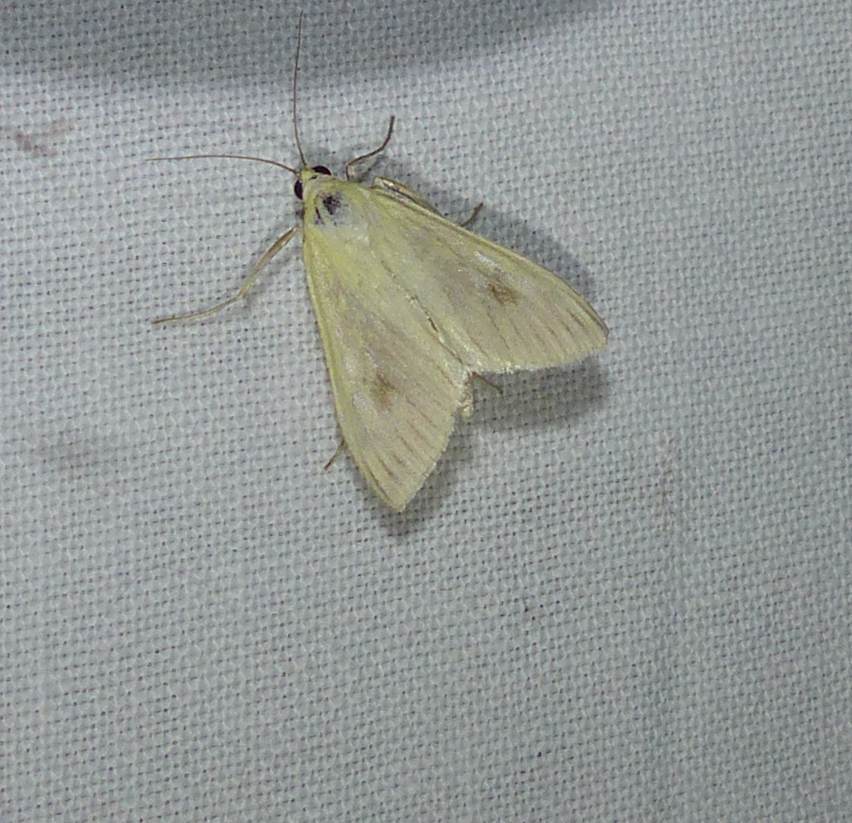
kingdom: Animalia
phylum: Arthropoda
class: Insecta
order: Lepidoptera
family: Crambidae
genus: Sitochroa
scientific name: Sitochroa palealis
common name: Greenish-yellow sitochroa moth
